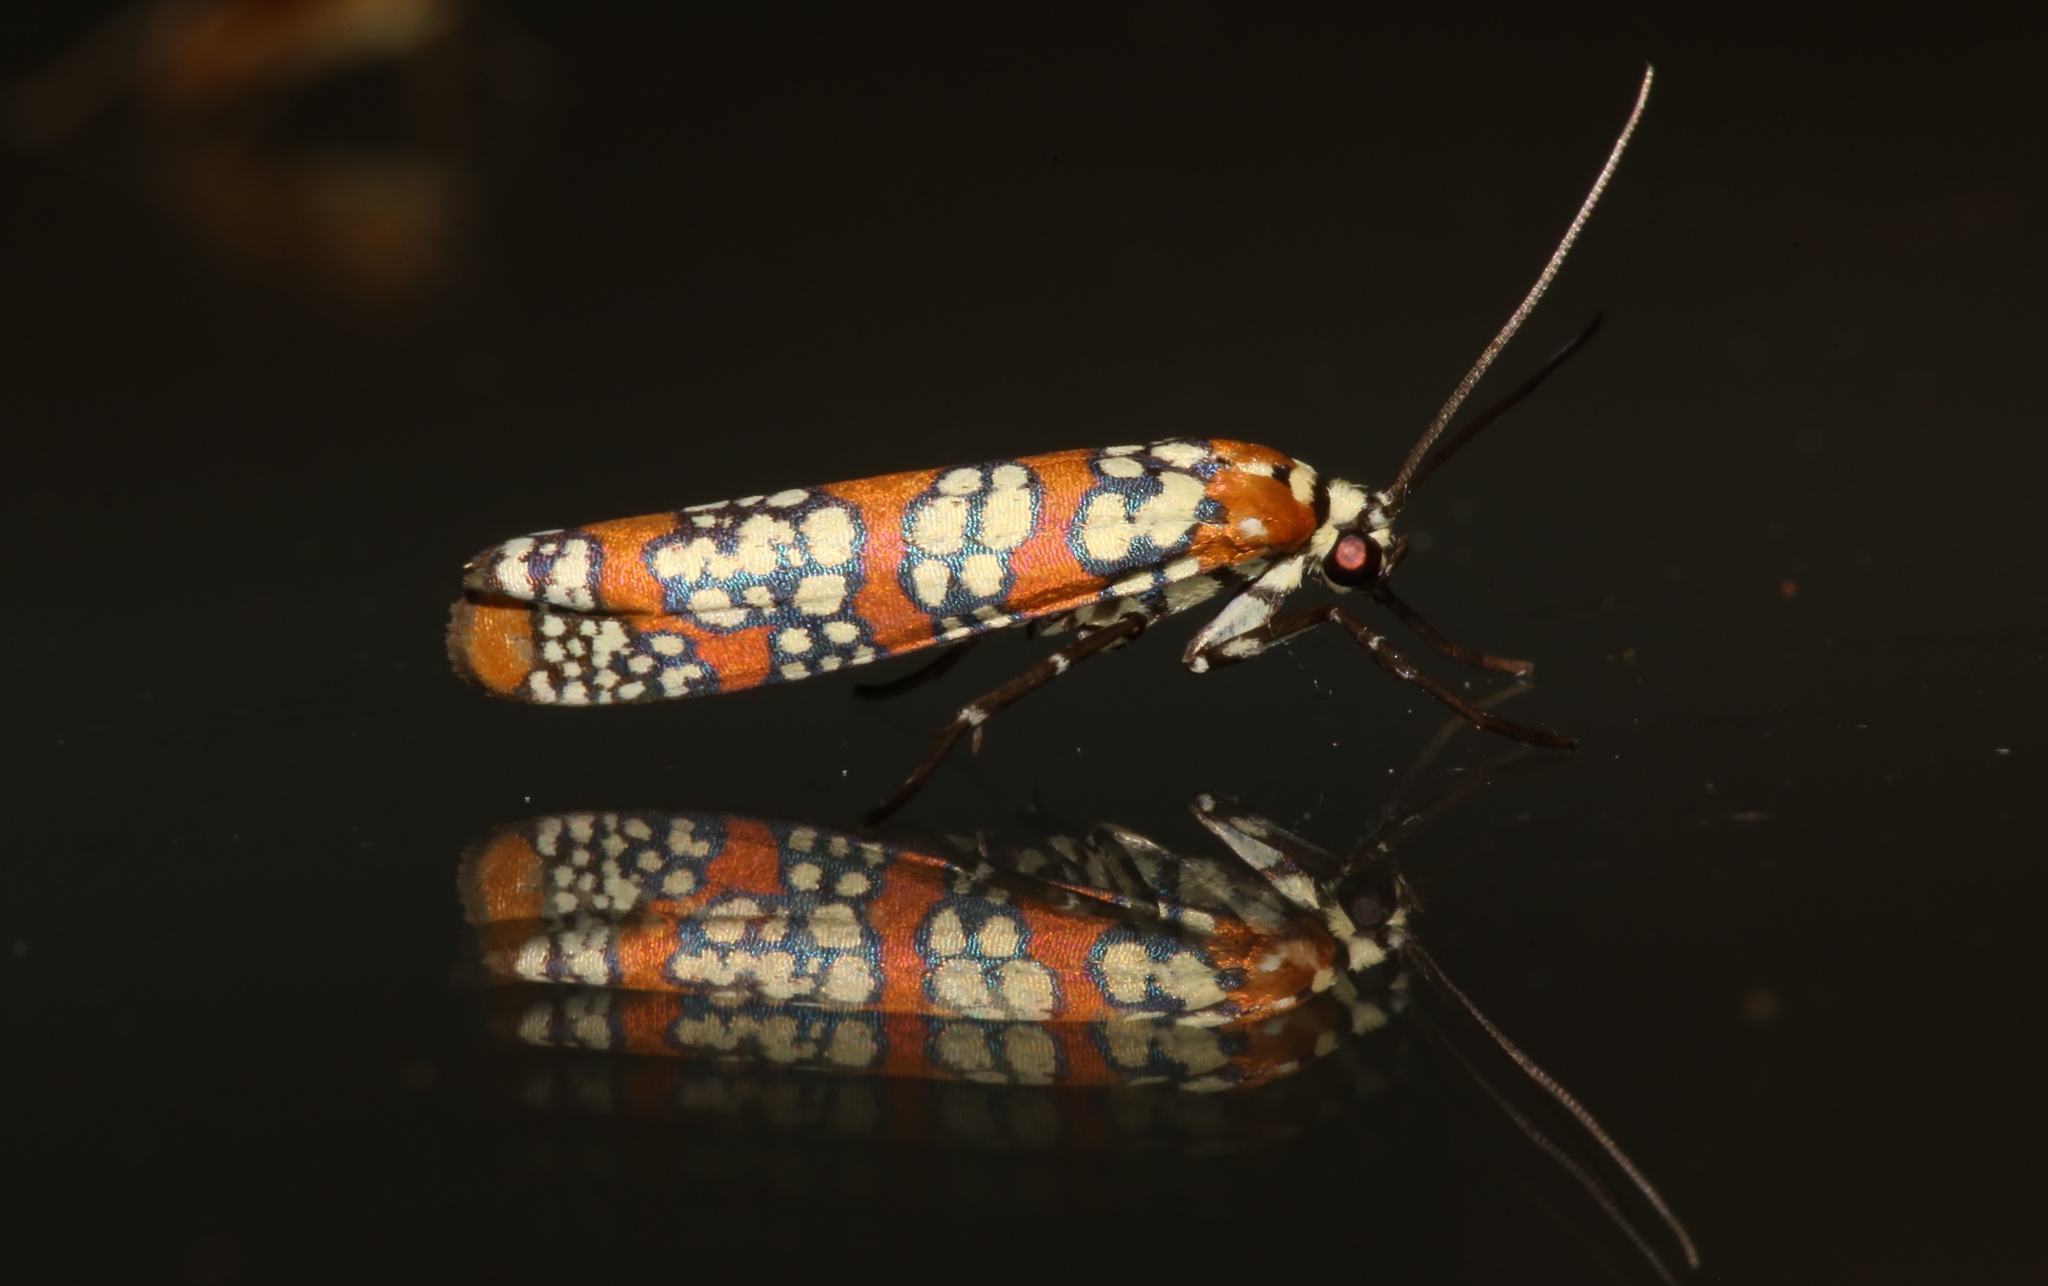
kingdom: Animalia
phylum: Arthropoda
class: Insecta
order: Lepidoptera
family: Attevidae
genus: Atteva
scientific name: Atteva punctella
